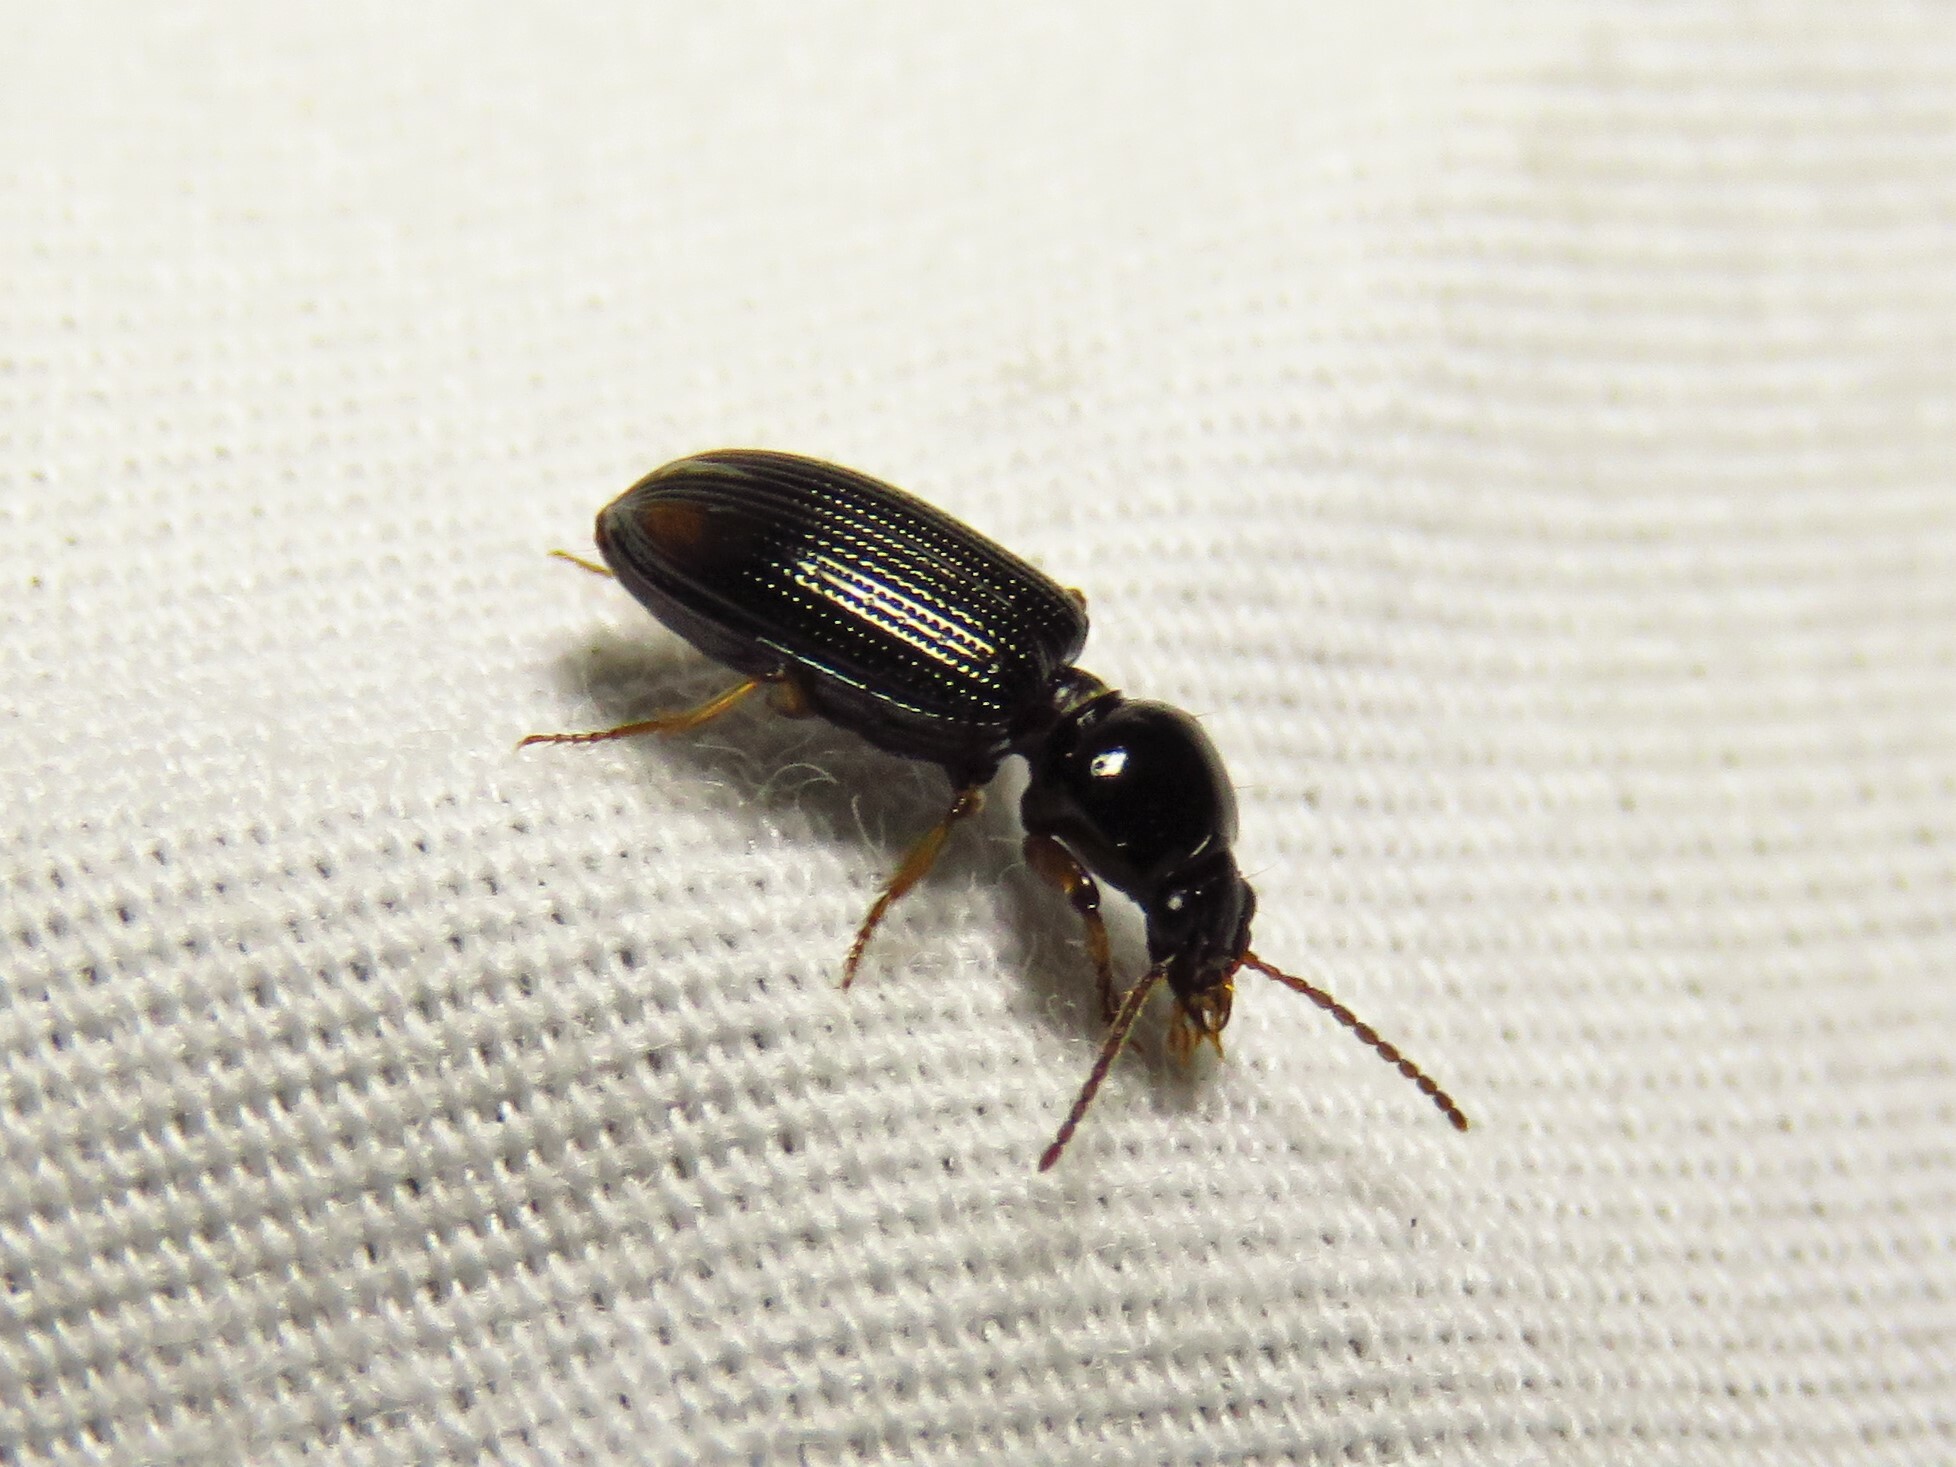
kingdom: Animalia
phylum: Arthropoda
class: Insecta
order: Coleoptera
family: Carabidae
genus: Aspidoglossa
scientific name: Aspidoglossa subangulata
